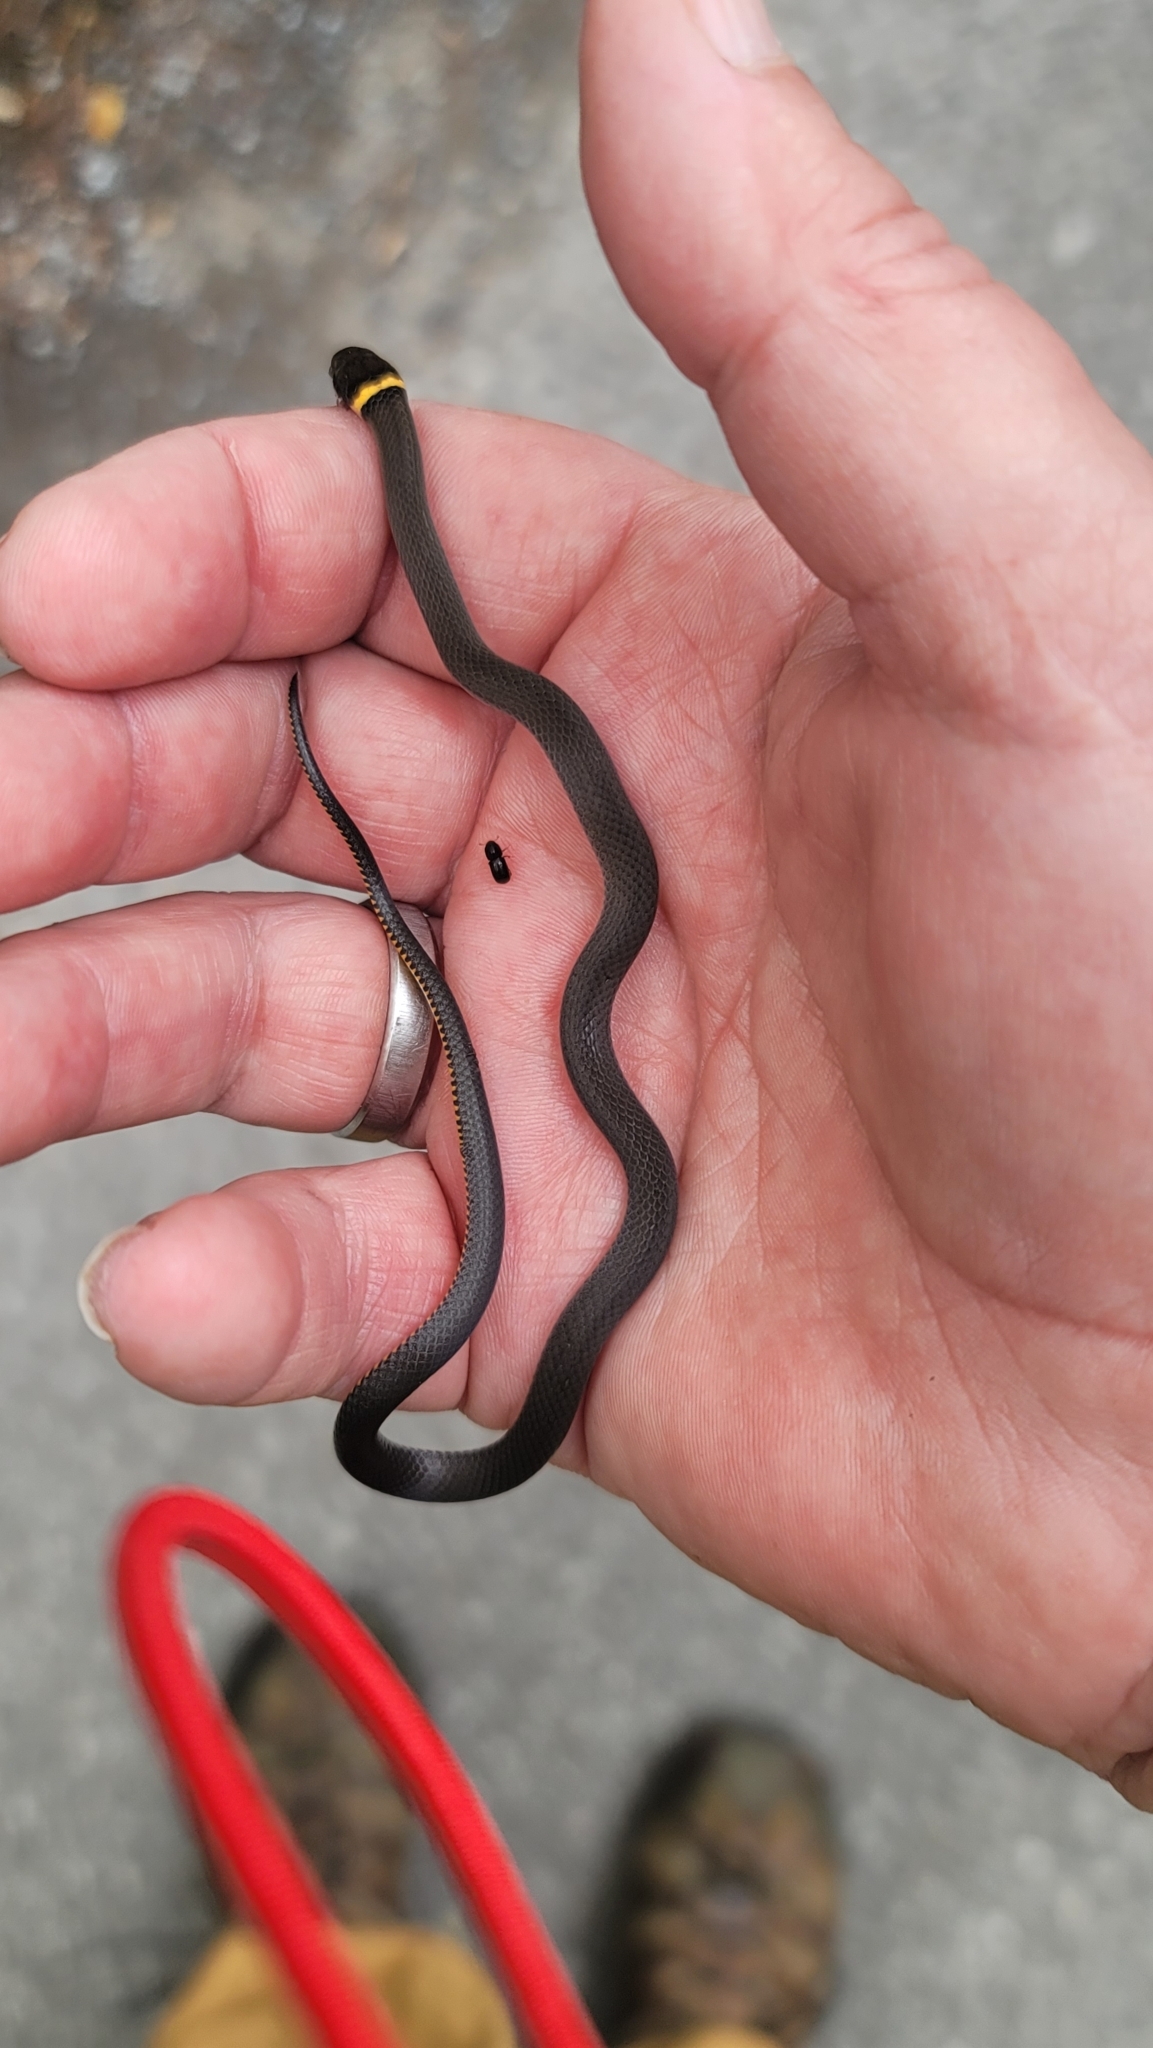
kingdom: Animalia
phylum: Chordata
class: Squamata
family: Colubridae
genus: Diadophis
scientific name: Diadophis punctatus
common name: Ringneck snake
